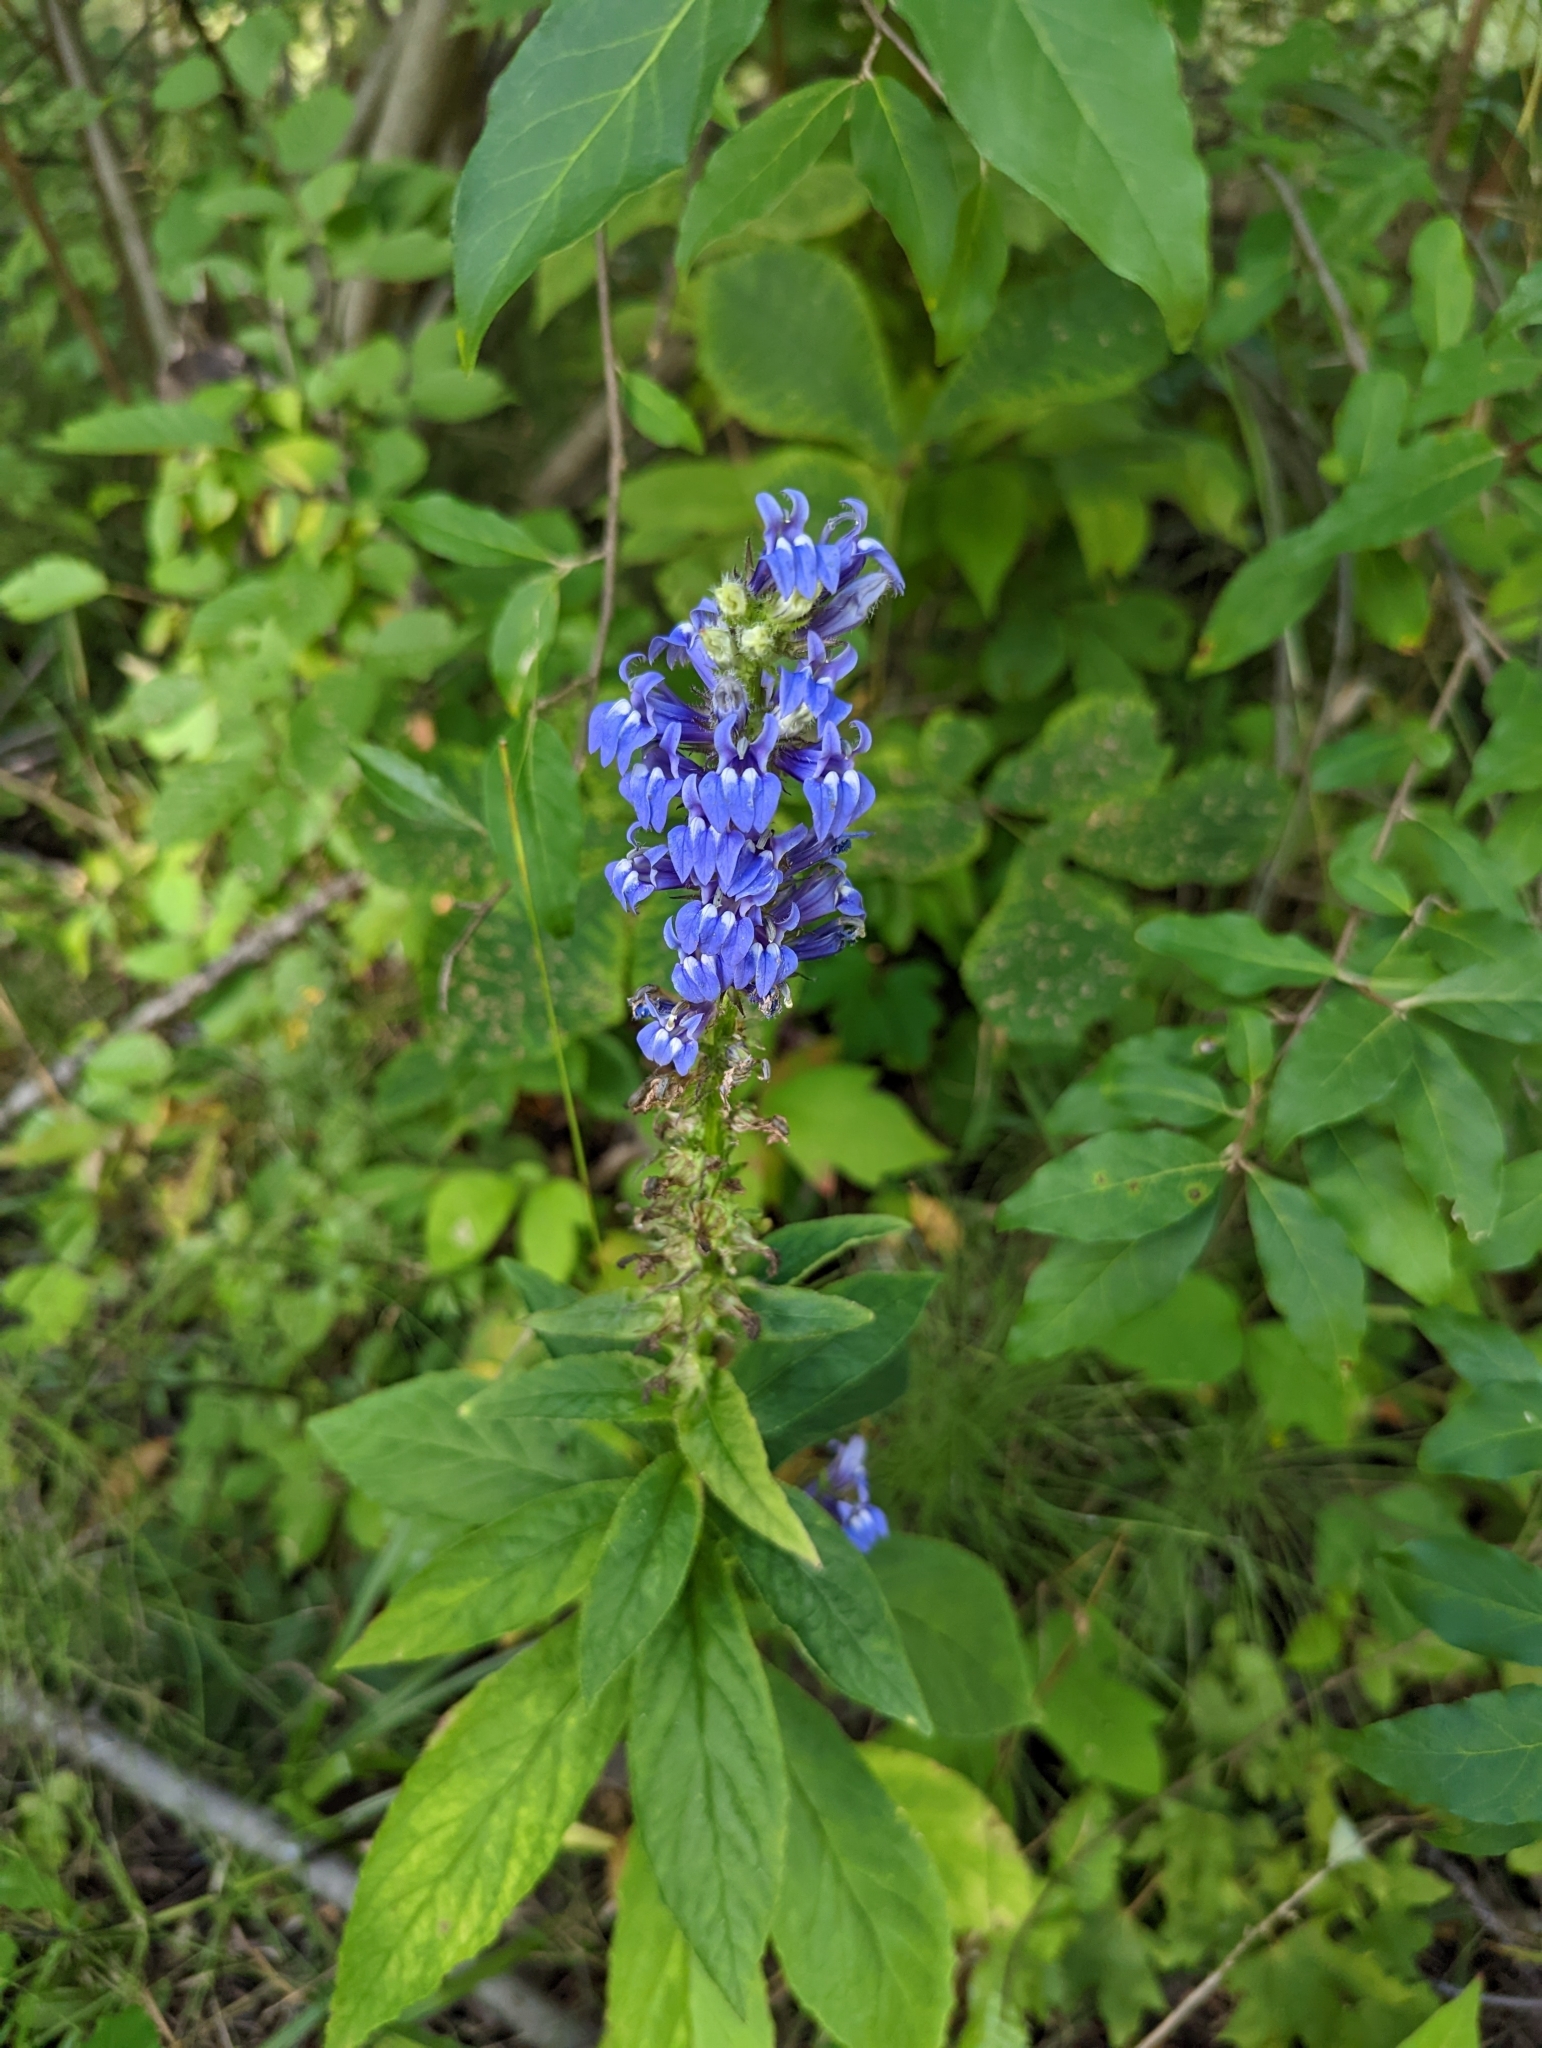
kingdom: Plantae
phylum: Tracheophyta
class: Magnoliopsida
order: Asterales
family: Campanulaceae
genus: Lobelia
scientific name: Lobelia siphilitica
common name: Great lobelia
